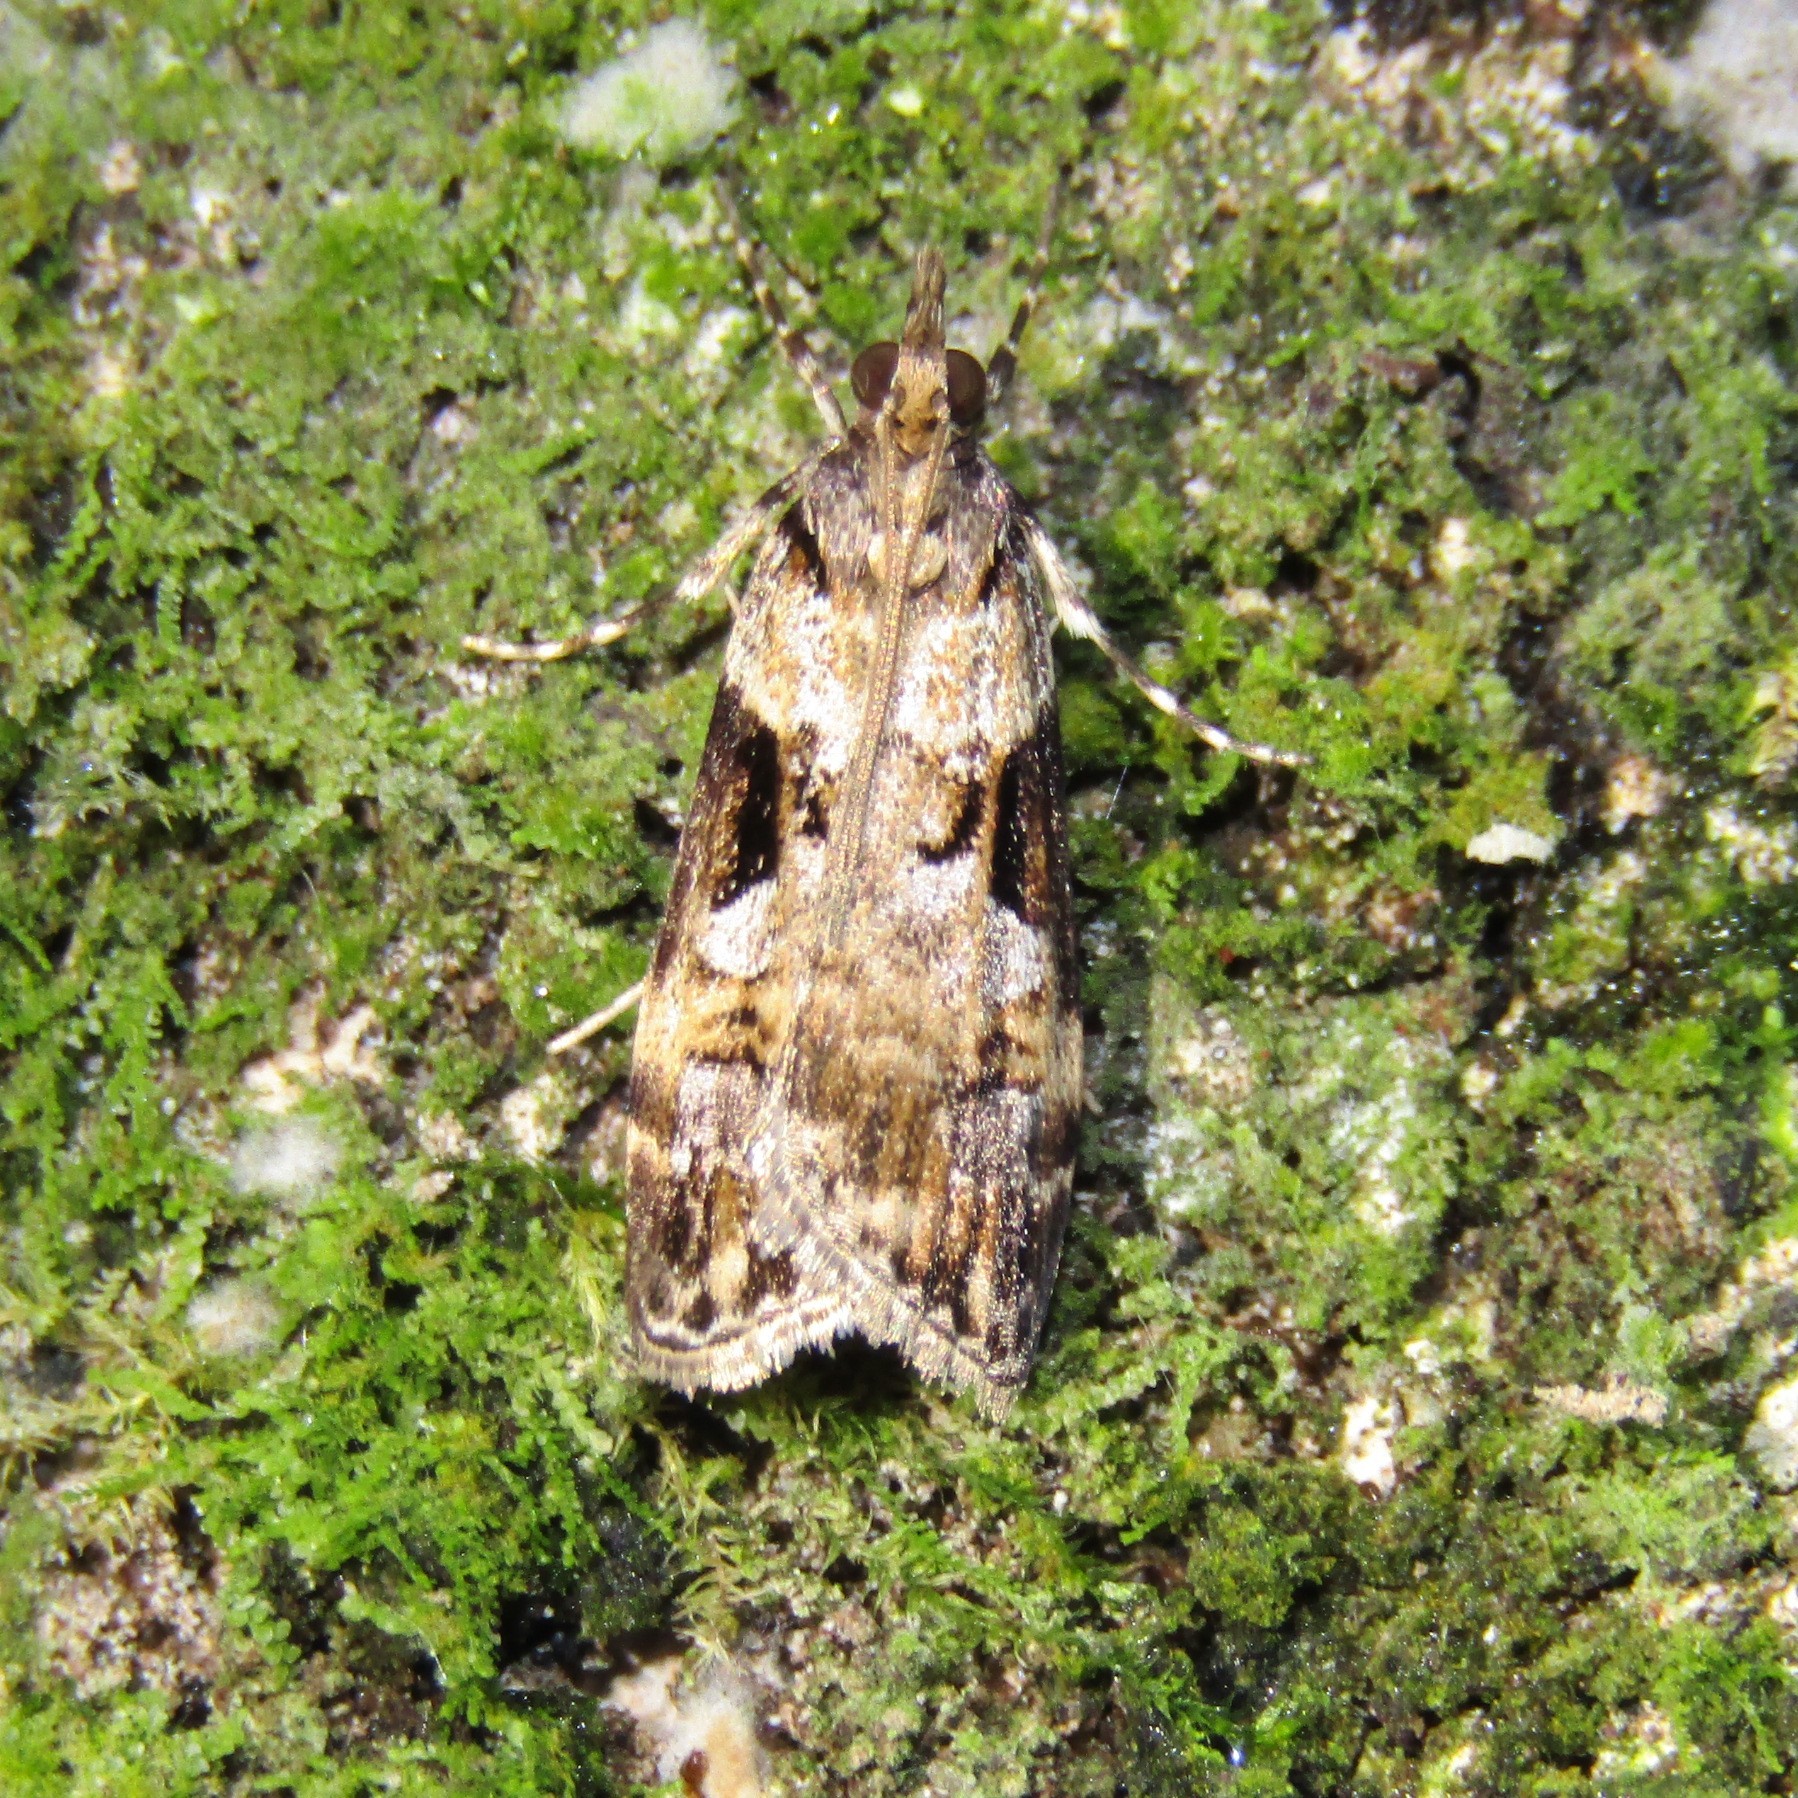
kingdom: Animalia
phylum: Arthropoda
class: Insecta
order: Lepidoptera
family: Crambidae
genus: Scoparia
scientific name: Scoparia acharis
